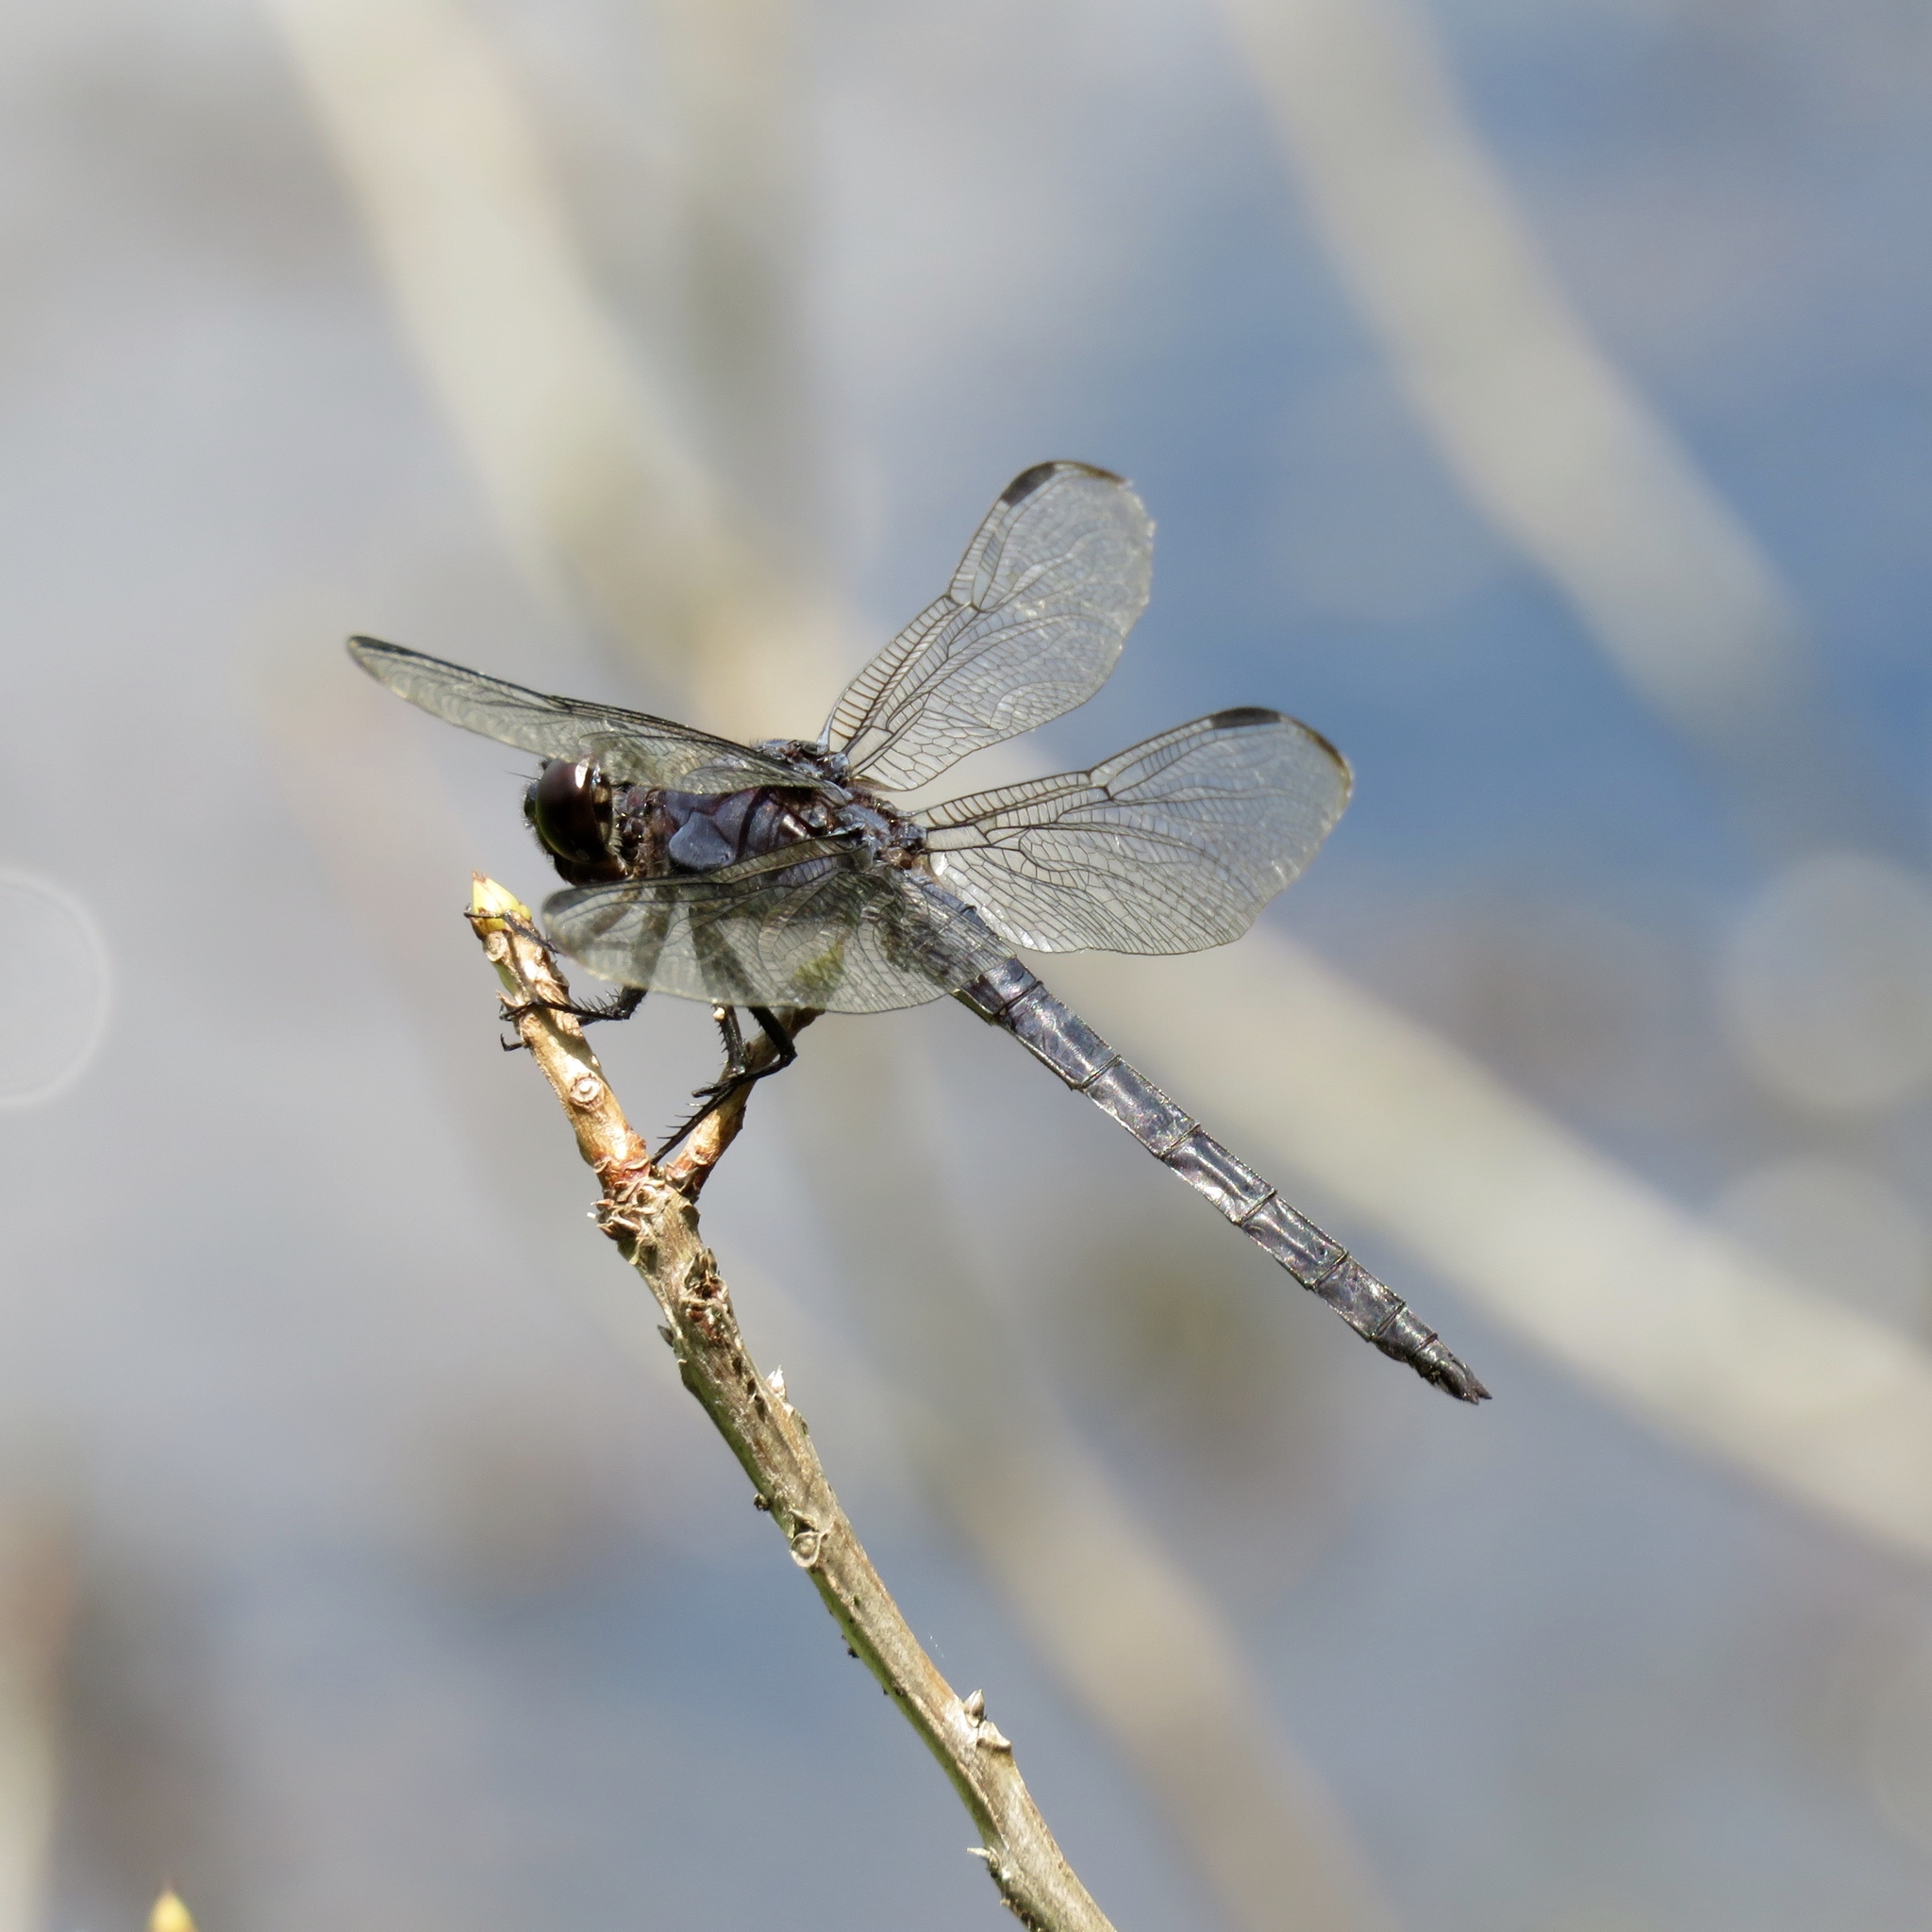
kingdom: Animalia
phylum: Arthropoda
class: Insecta
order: Odonata
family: Libellulidae
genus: Libellula
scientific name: Libellula incesta
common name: Slaty skimmer
